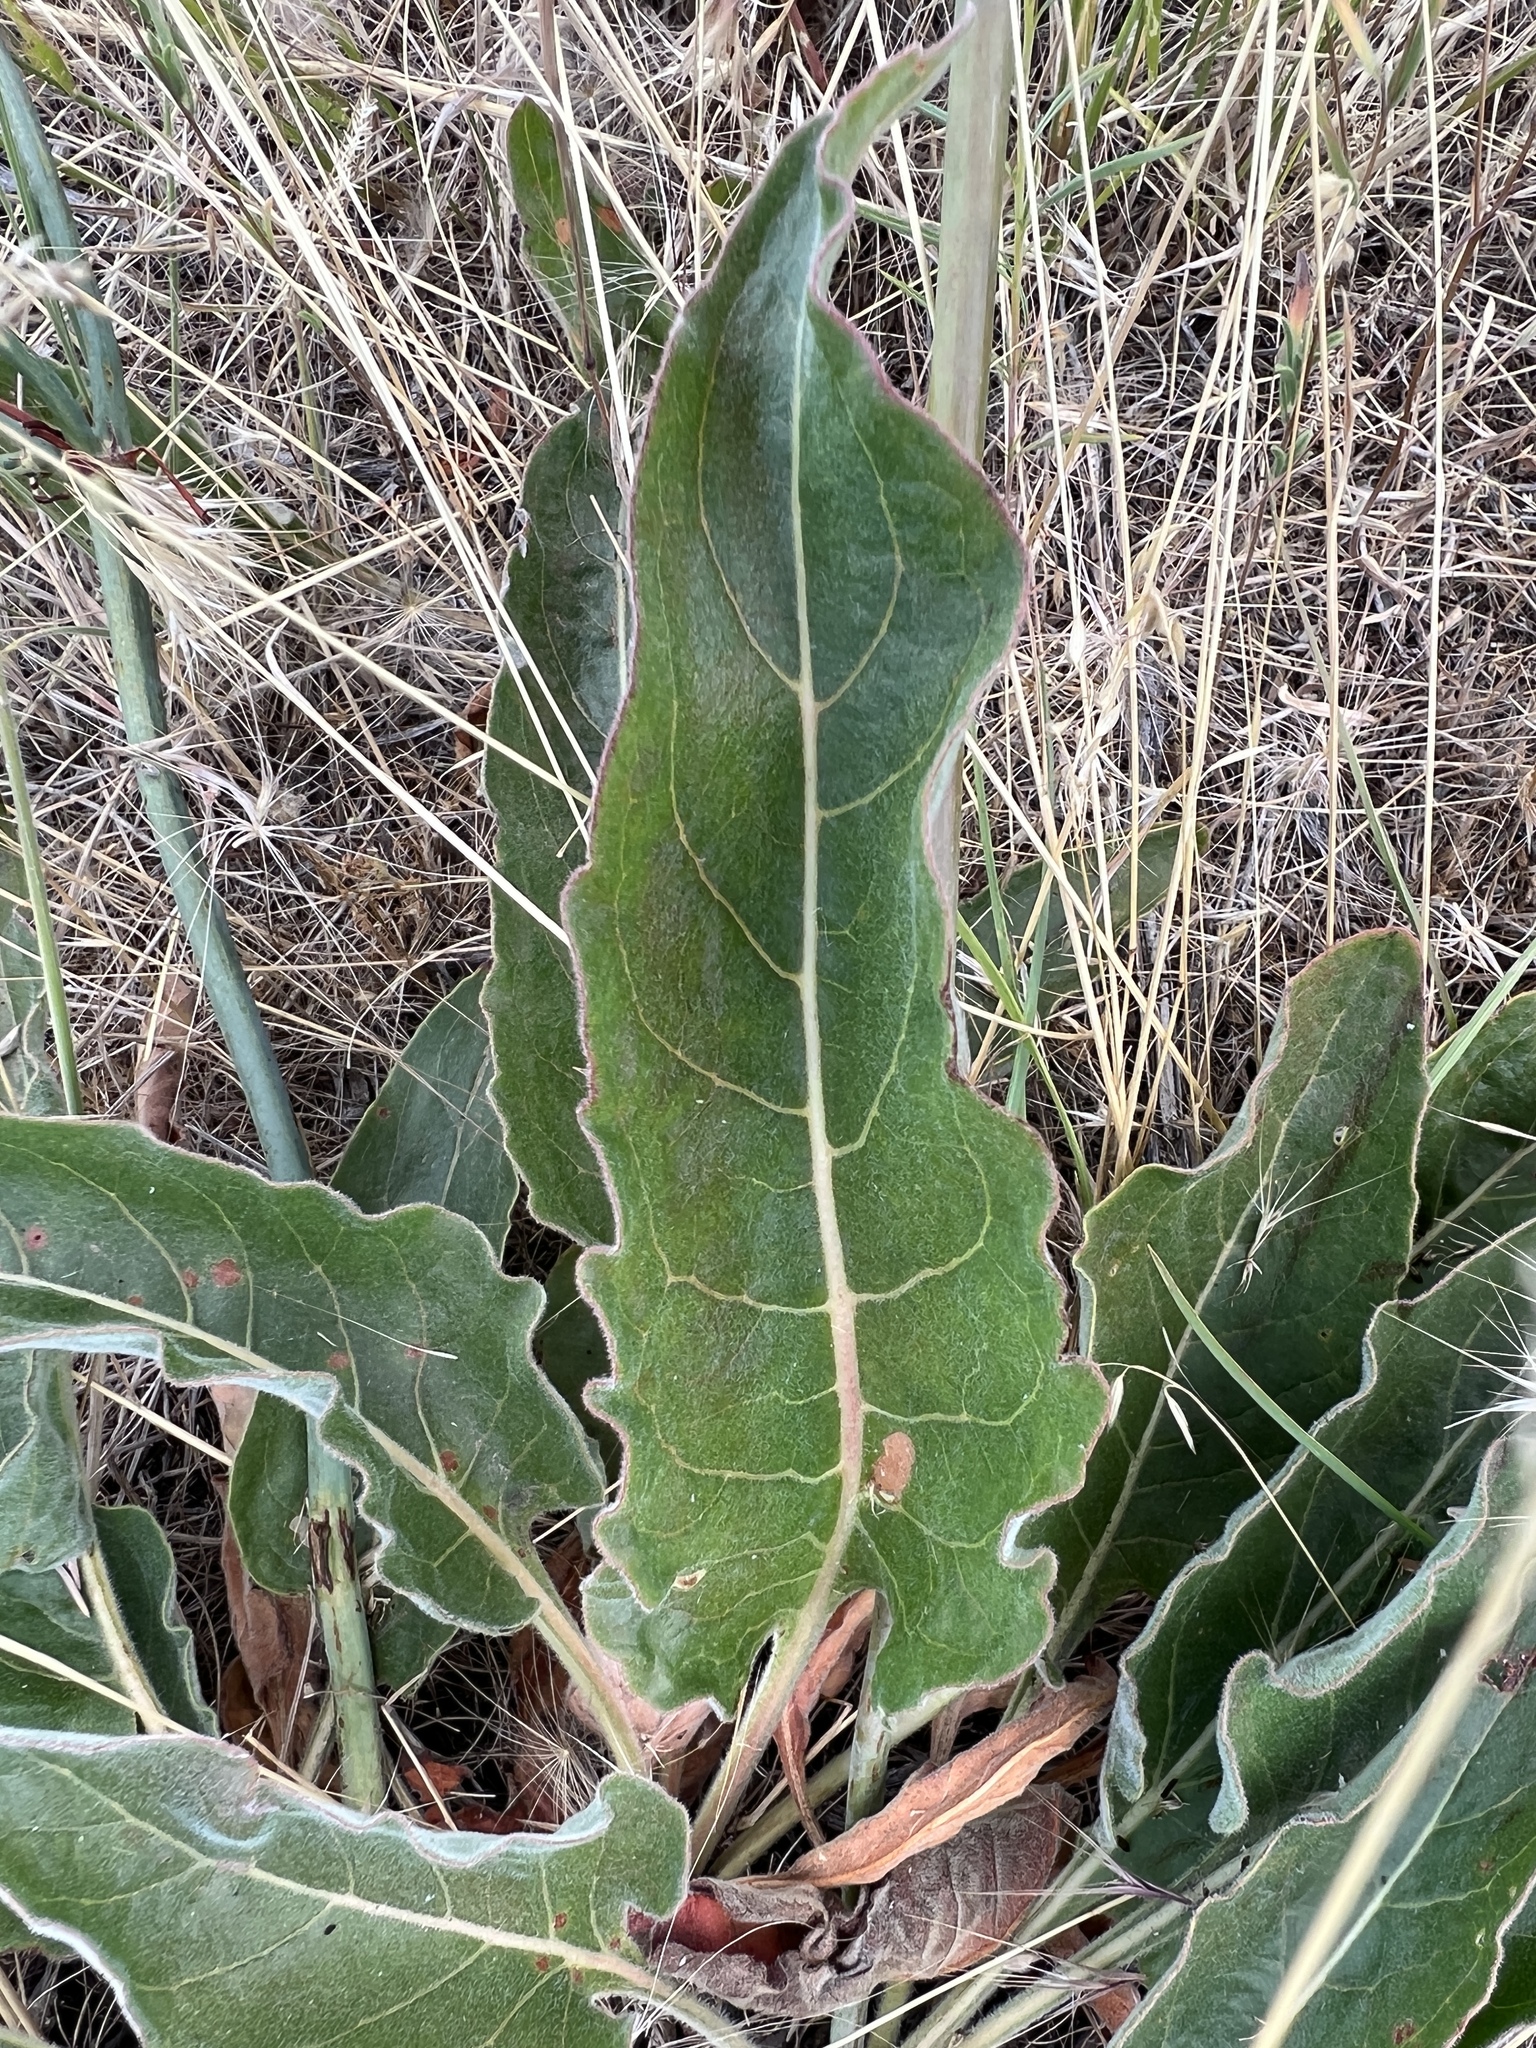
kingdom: Plantae
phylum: Tracheophyta
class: Magnoliopsida
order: Caryophyllales
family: Polygonaceae
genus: Eriogonum
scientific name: Eriogonum elatum
